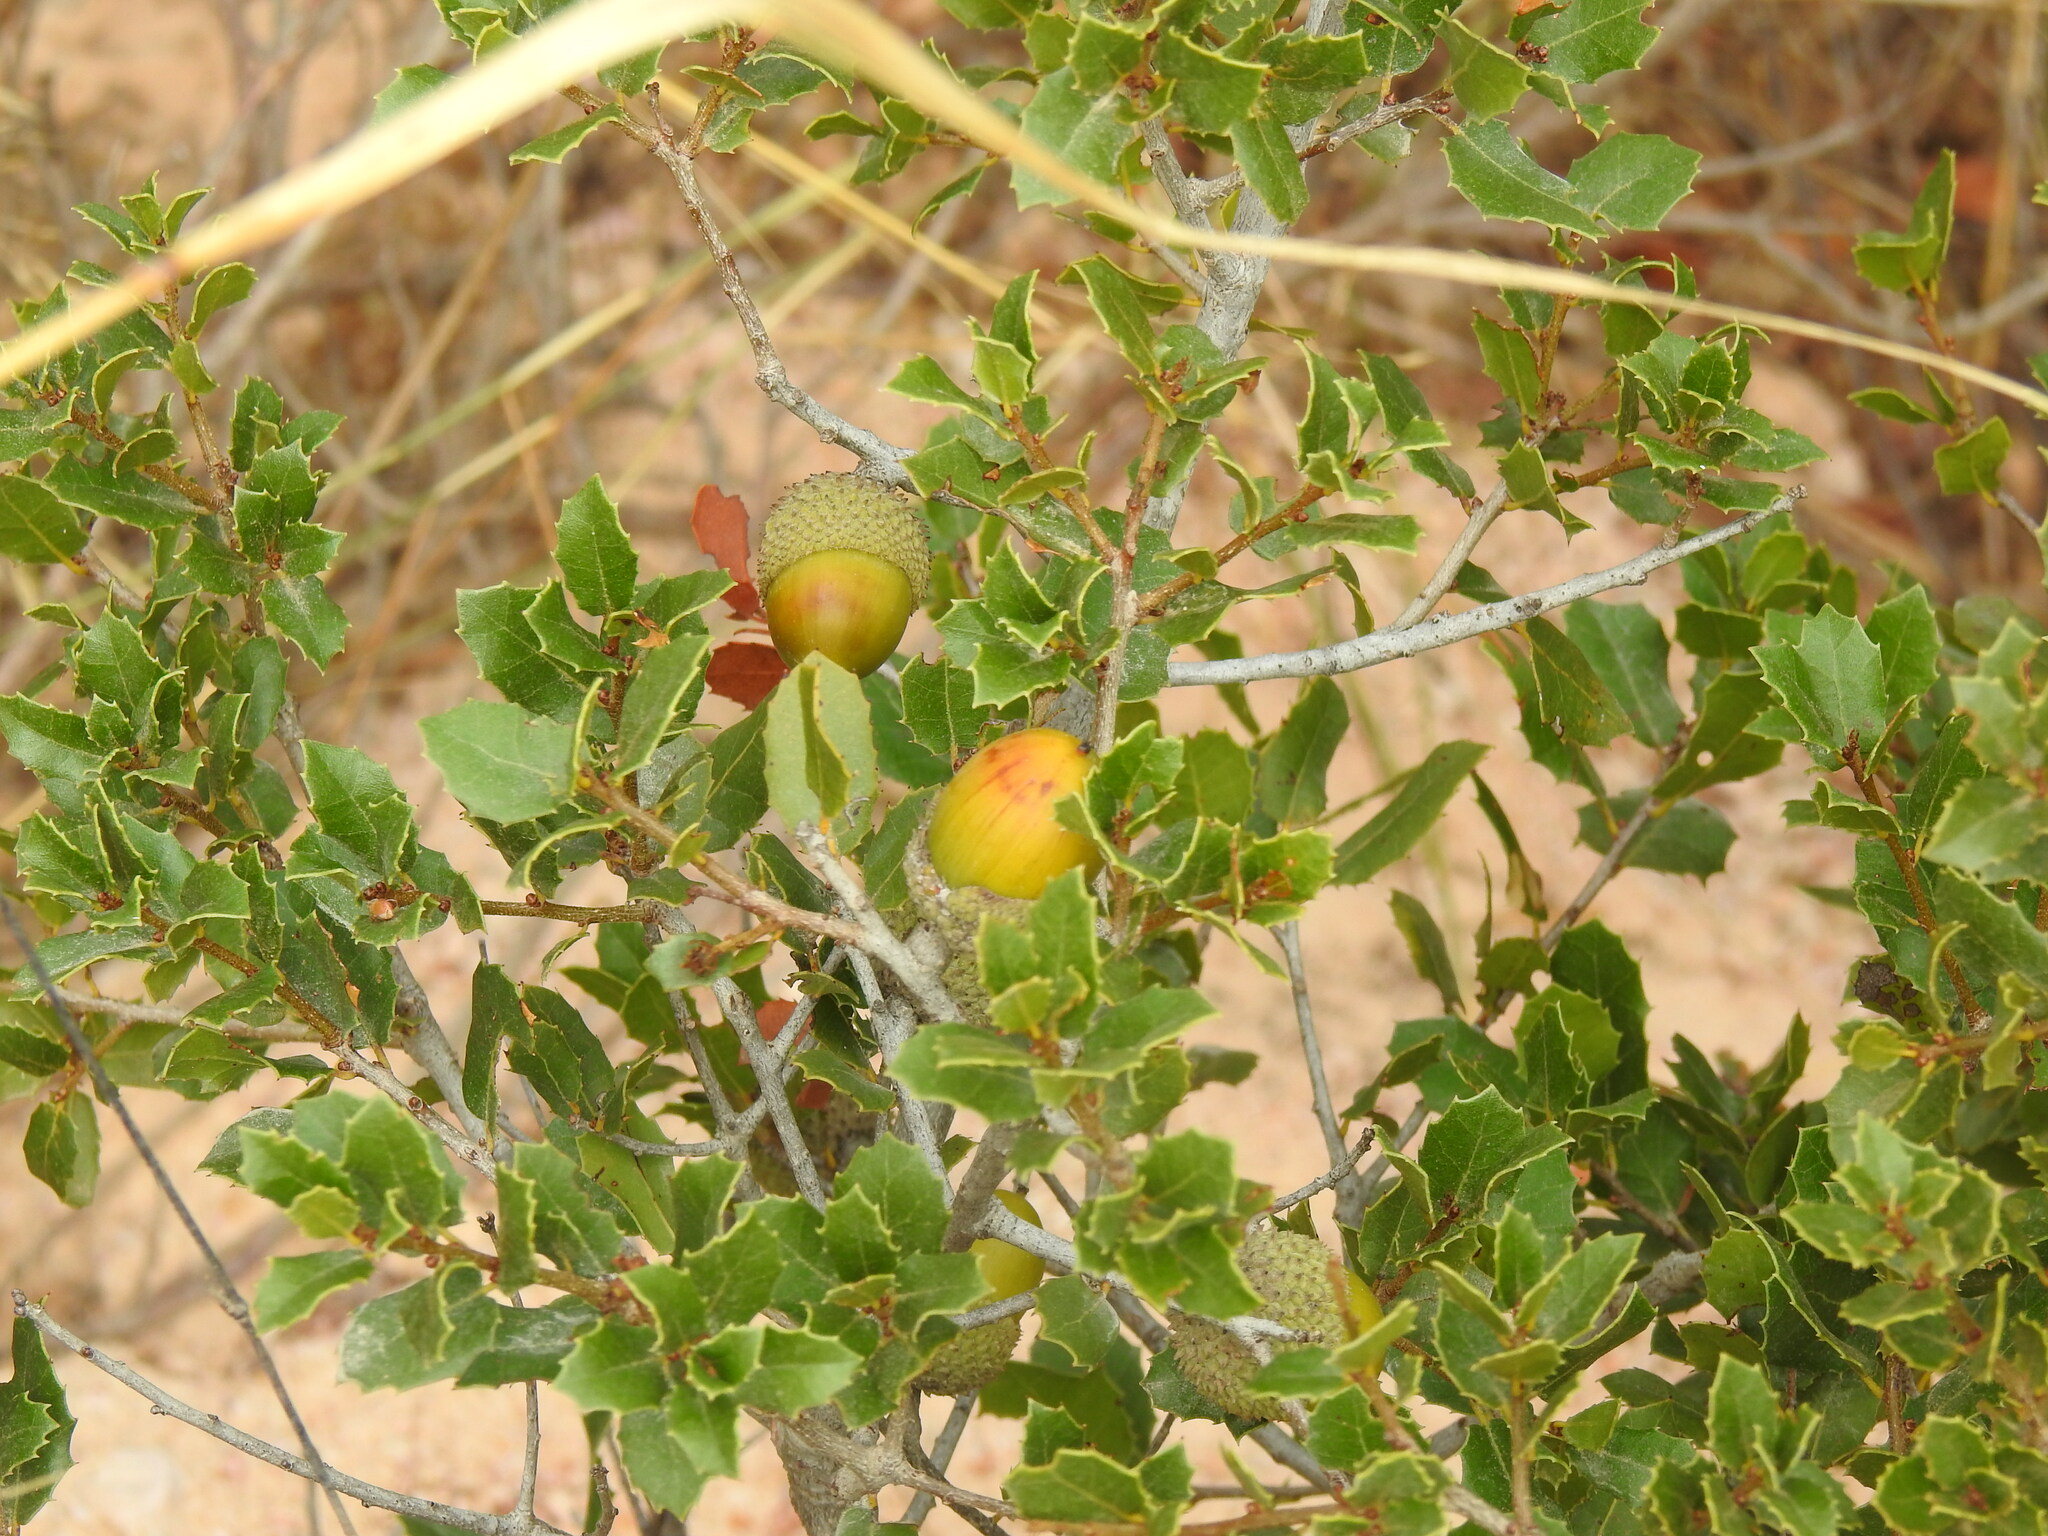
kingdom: Plantae
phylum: Tracheophyta
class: Magnoliopsida
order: Fagales
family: Fagaceae
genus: Quercus
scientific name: Quercus coccifera
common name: Kermes oak
